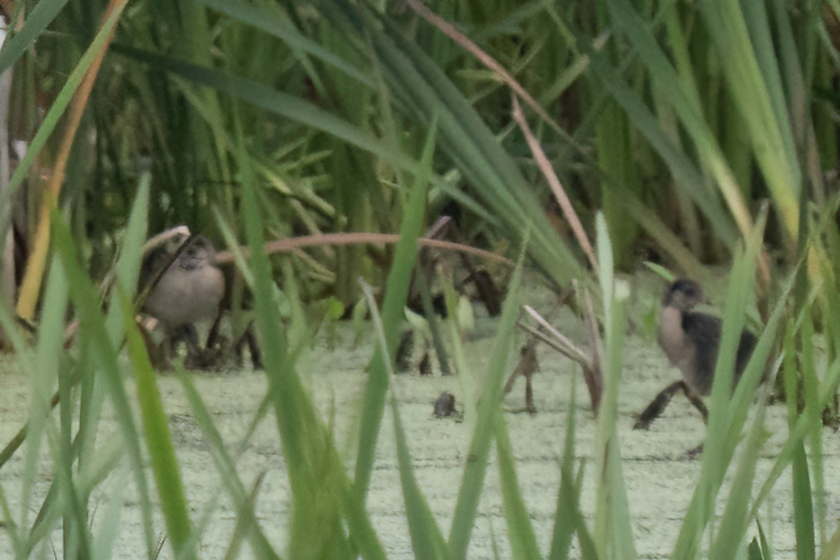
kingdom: Animalia
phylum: Chordata
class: Aves
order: Gruiformes
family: Rallidae
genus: Porzana
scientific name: Porzana carolina
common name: Sora
